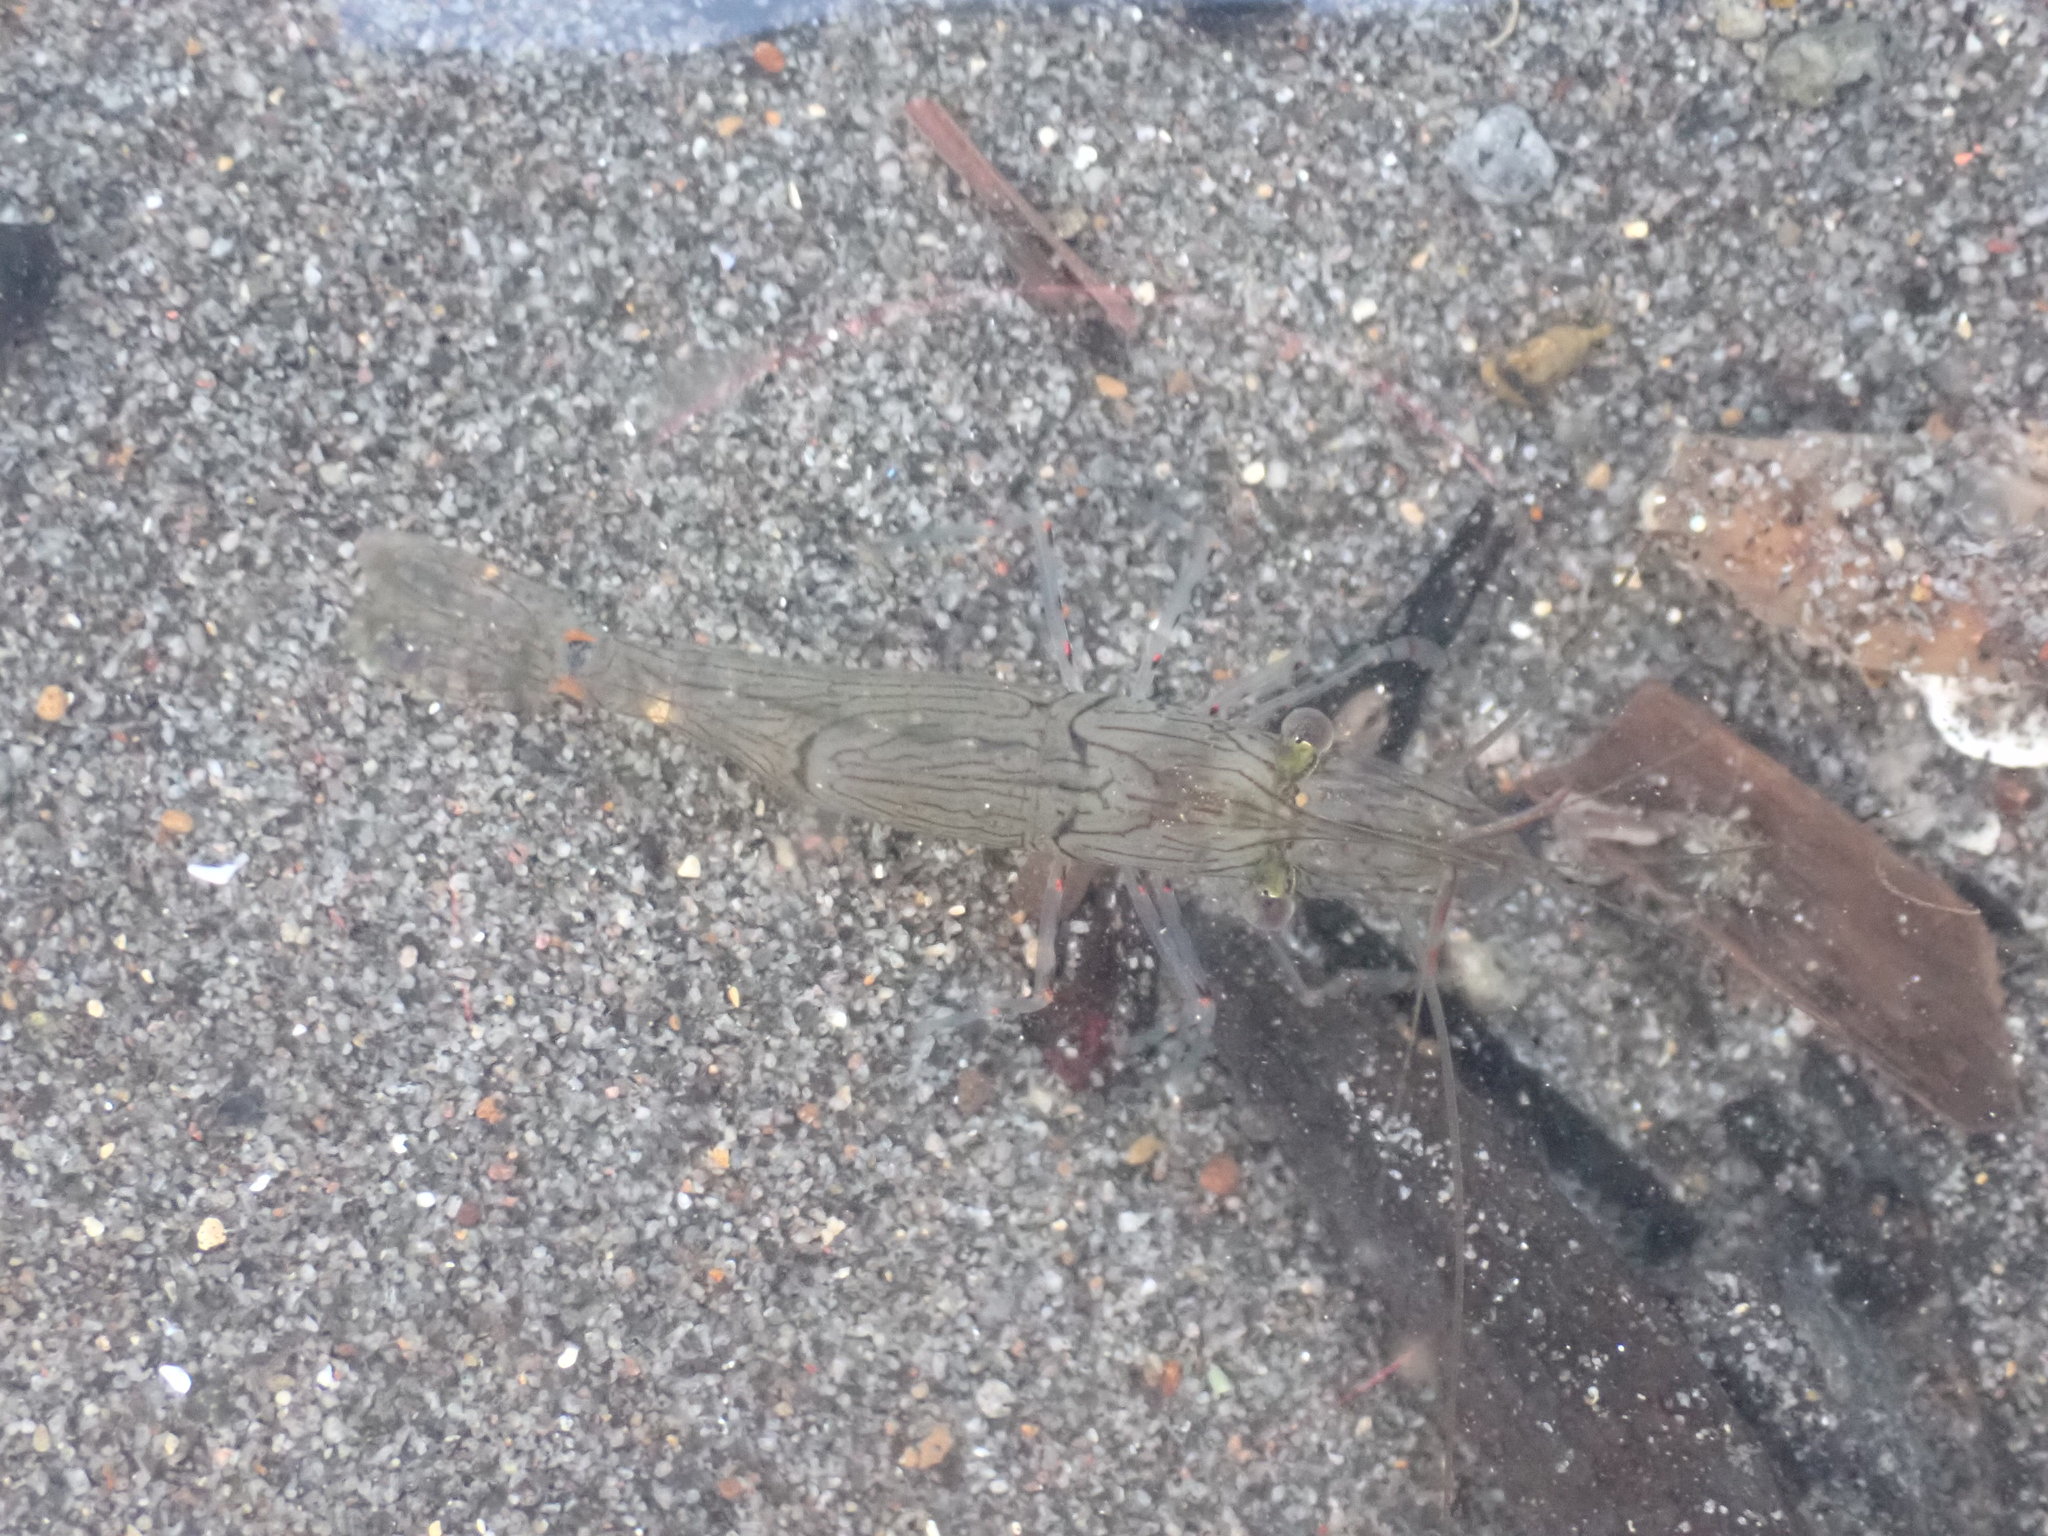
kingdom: Animalia
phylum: Arthropoda
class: Malacostraca
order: Decapoda
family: Palaemonidae
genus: Palaemon
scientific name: Palaemon affinis
